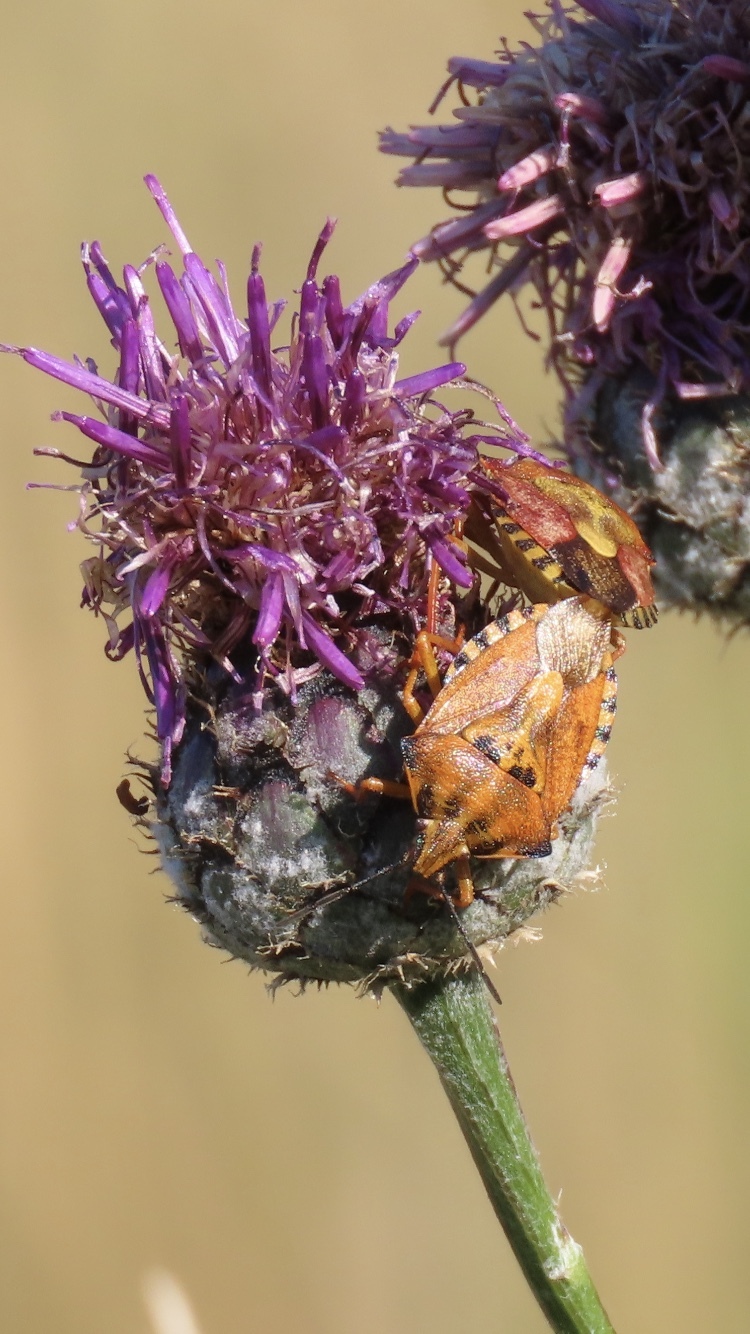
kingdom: Animalia
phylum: Arthropoda
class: Insecta
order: Hemiptera
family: Pentatomidae
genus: Carpocoris
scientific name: Carpocoris purpureipennis
